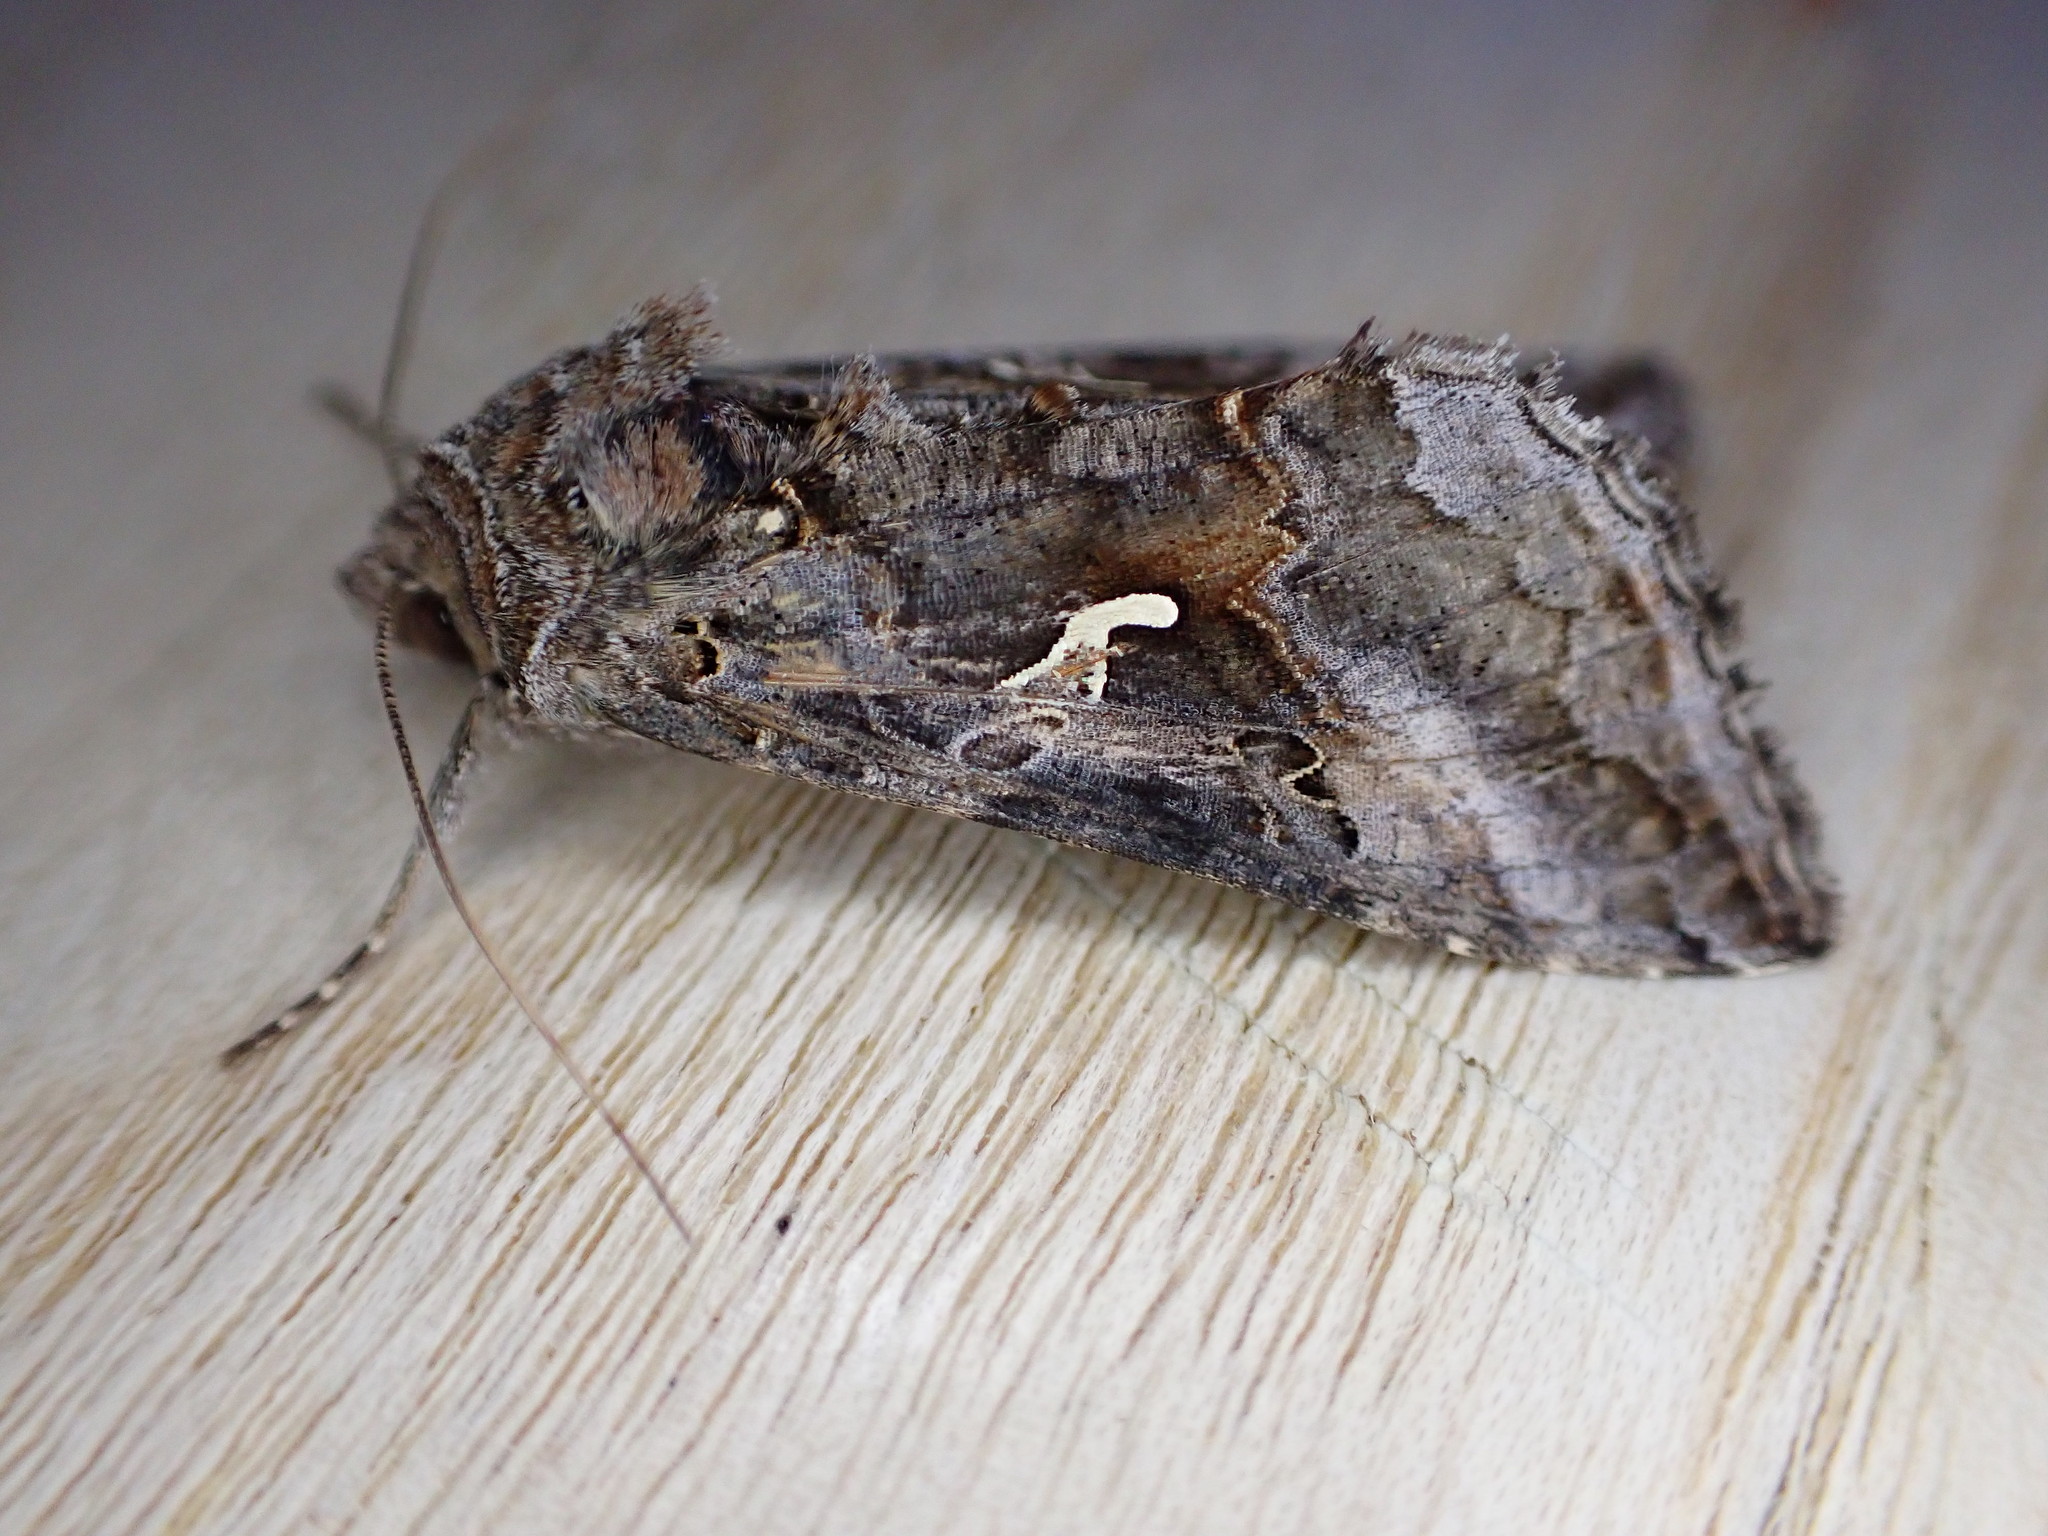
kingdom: Animalia
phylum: Arthropoda
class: Insecta
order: Lepidoptera
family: Noctuidae
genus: Autographa
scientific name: Autographa gamma
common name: Silver y
